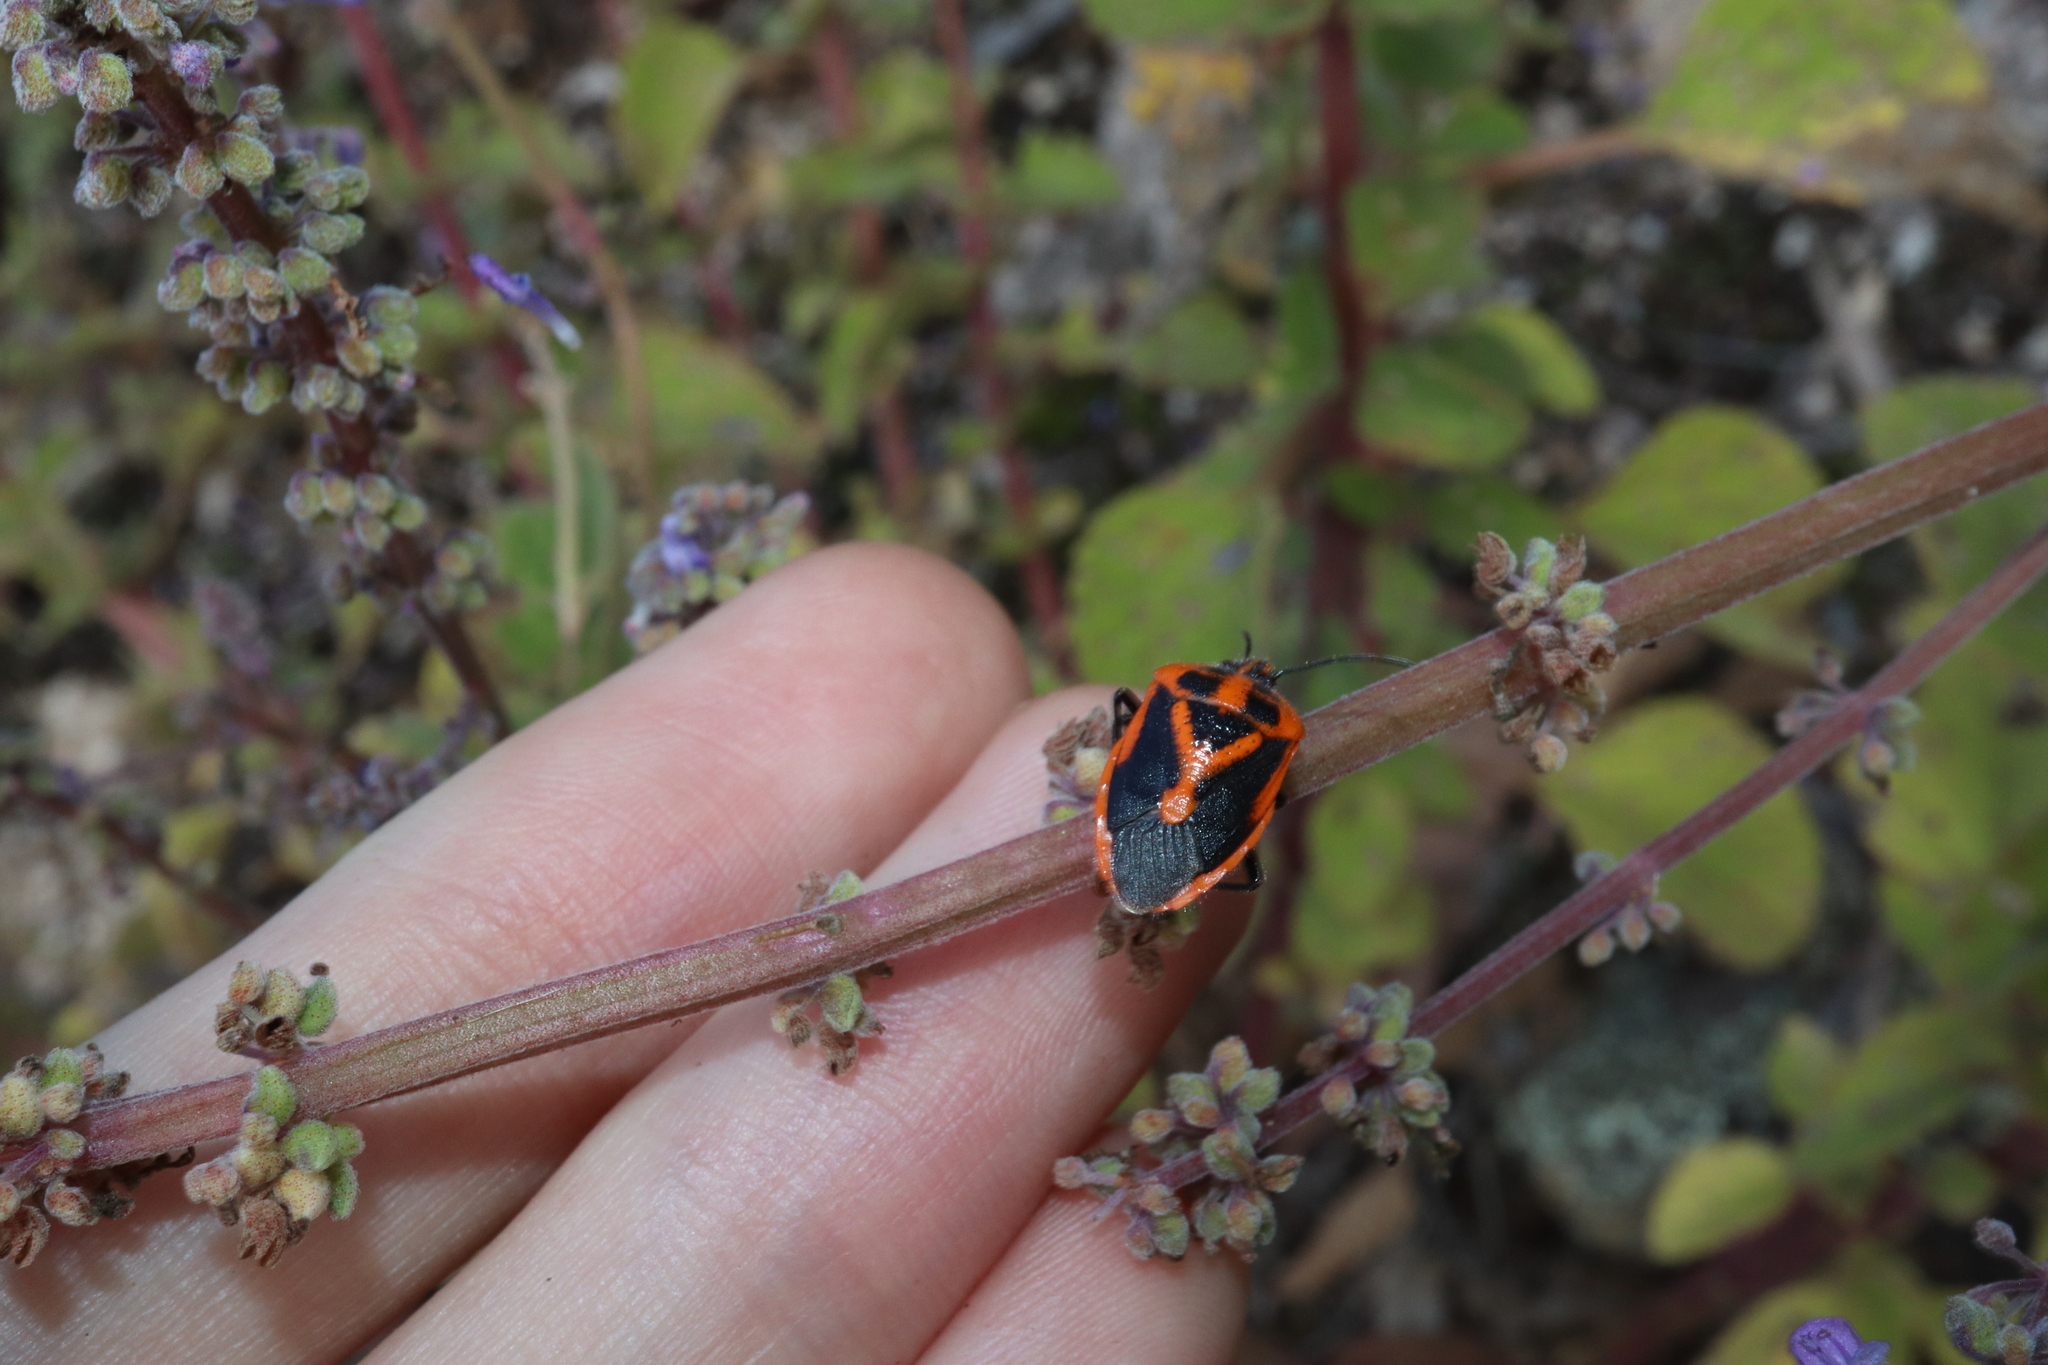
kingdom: Animalia
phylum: Arthropoda
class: Insecta
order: Hemiptera
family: Pentatomidae
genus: Agonoscelis
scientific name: Agonoscelis rutila
